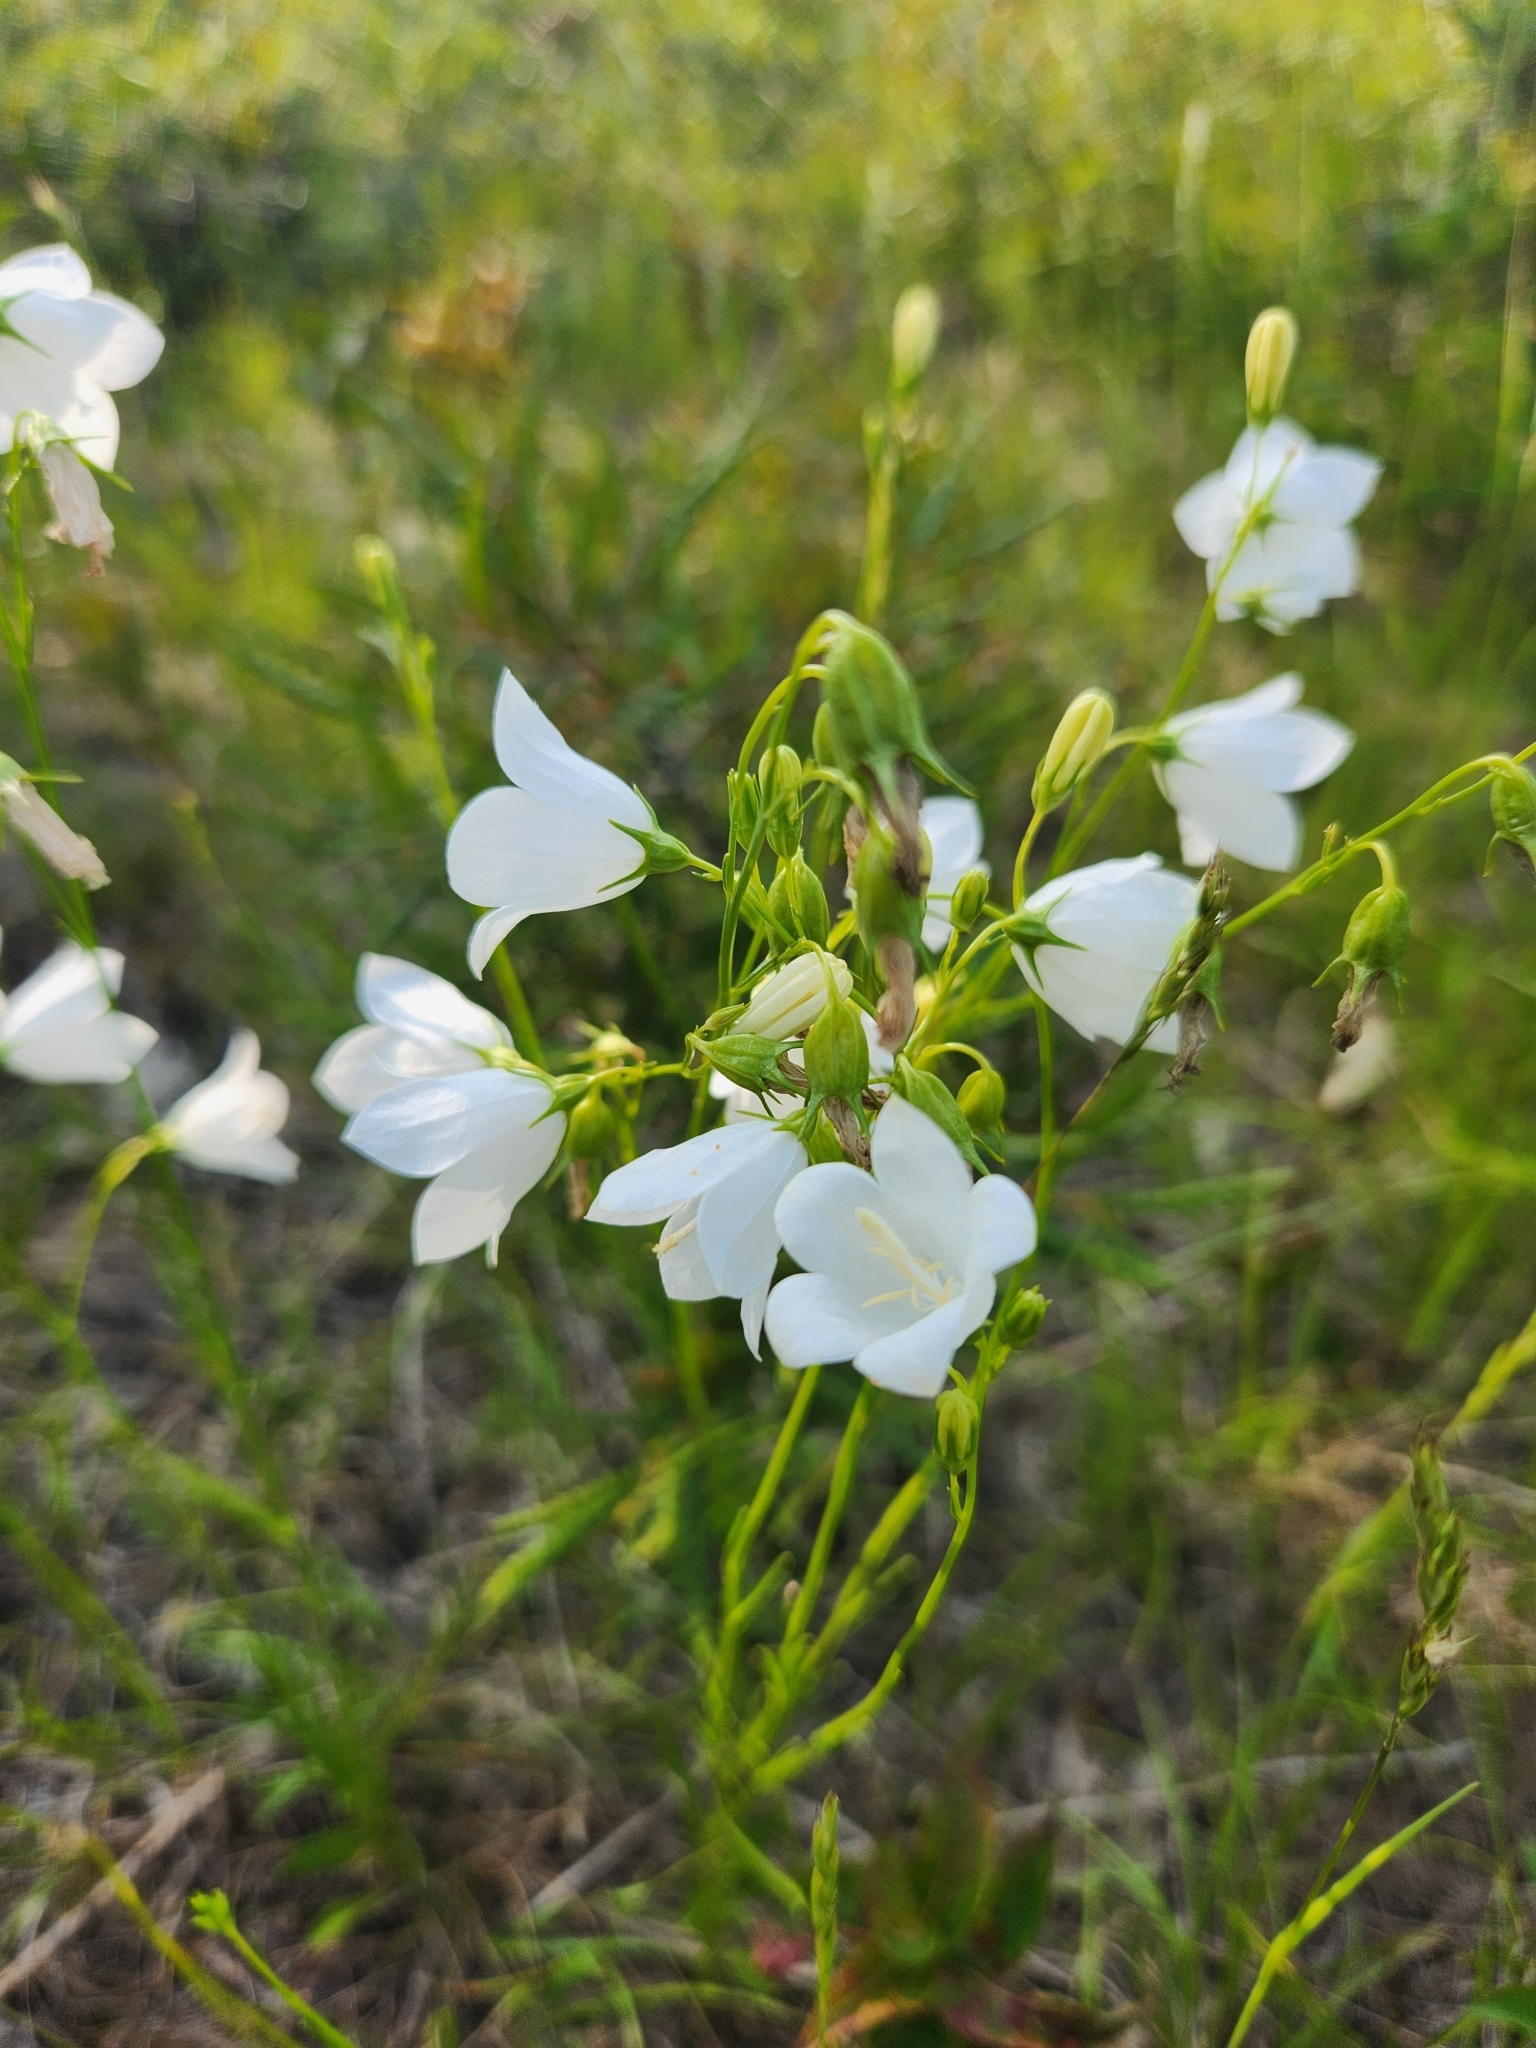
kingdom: Plantae
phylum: Tracheophyta
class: Magnoliopsida
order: Asterales
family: Campanulaceae
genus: Campanula
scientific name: Campanula intercedens
